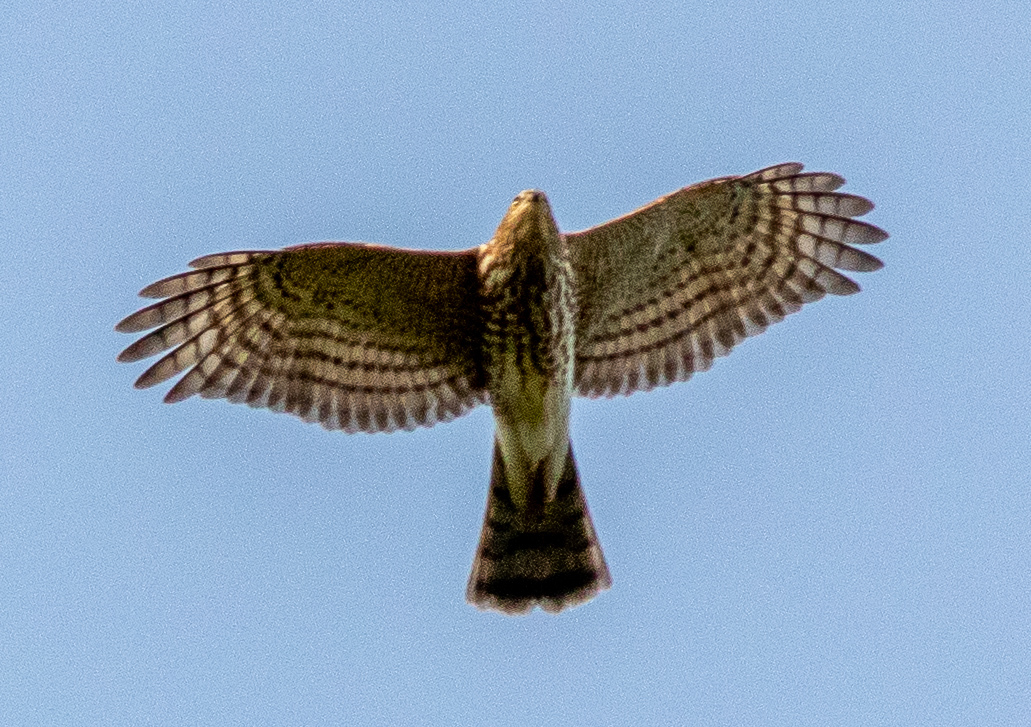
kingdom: Animalia
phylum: Chordata
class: Aves
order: Accipitriformes
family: Accipitridae
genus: Accipiter
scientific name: Accipiter striatus
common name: Sharp-shinned hawk
